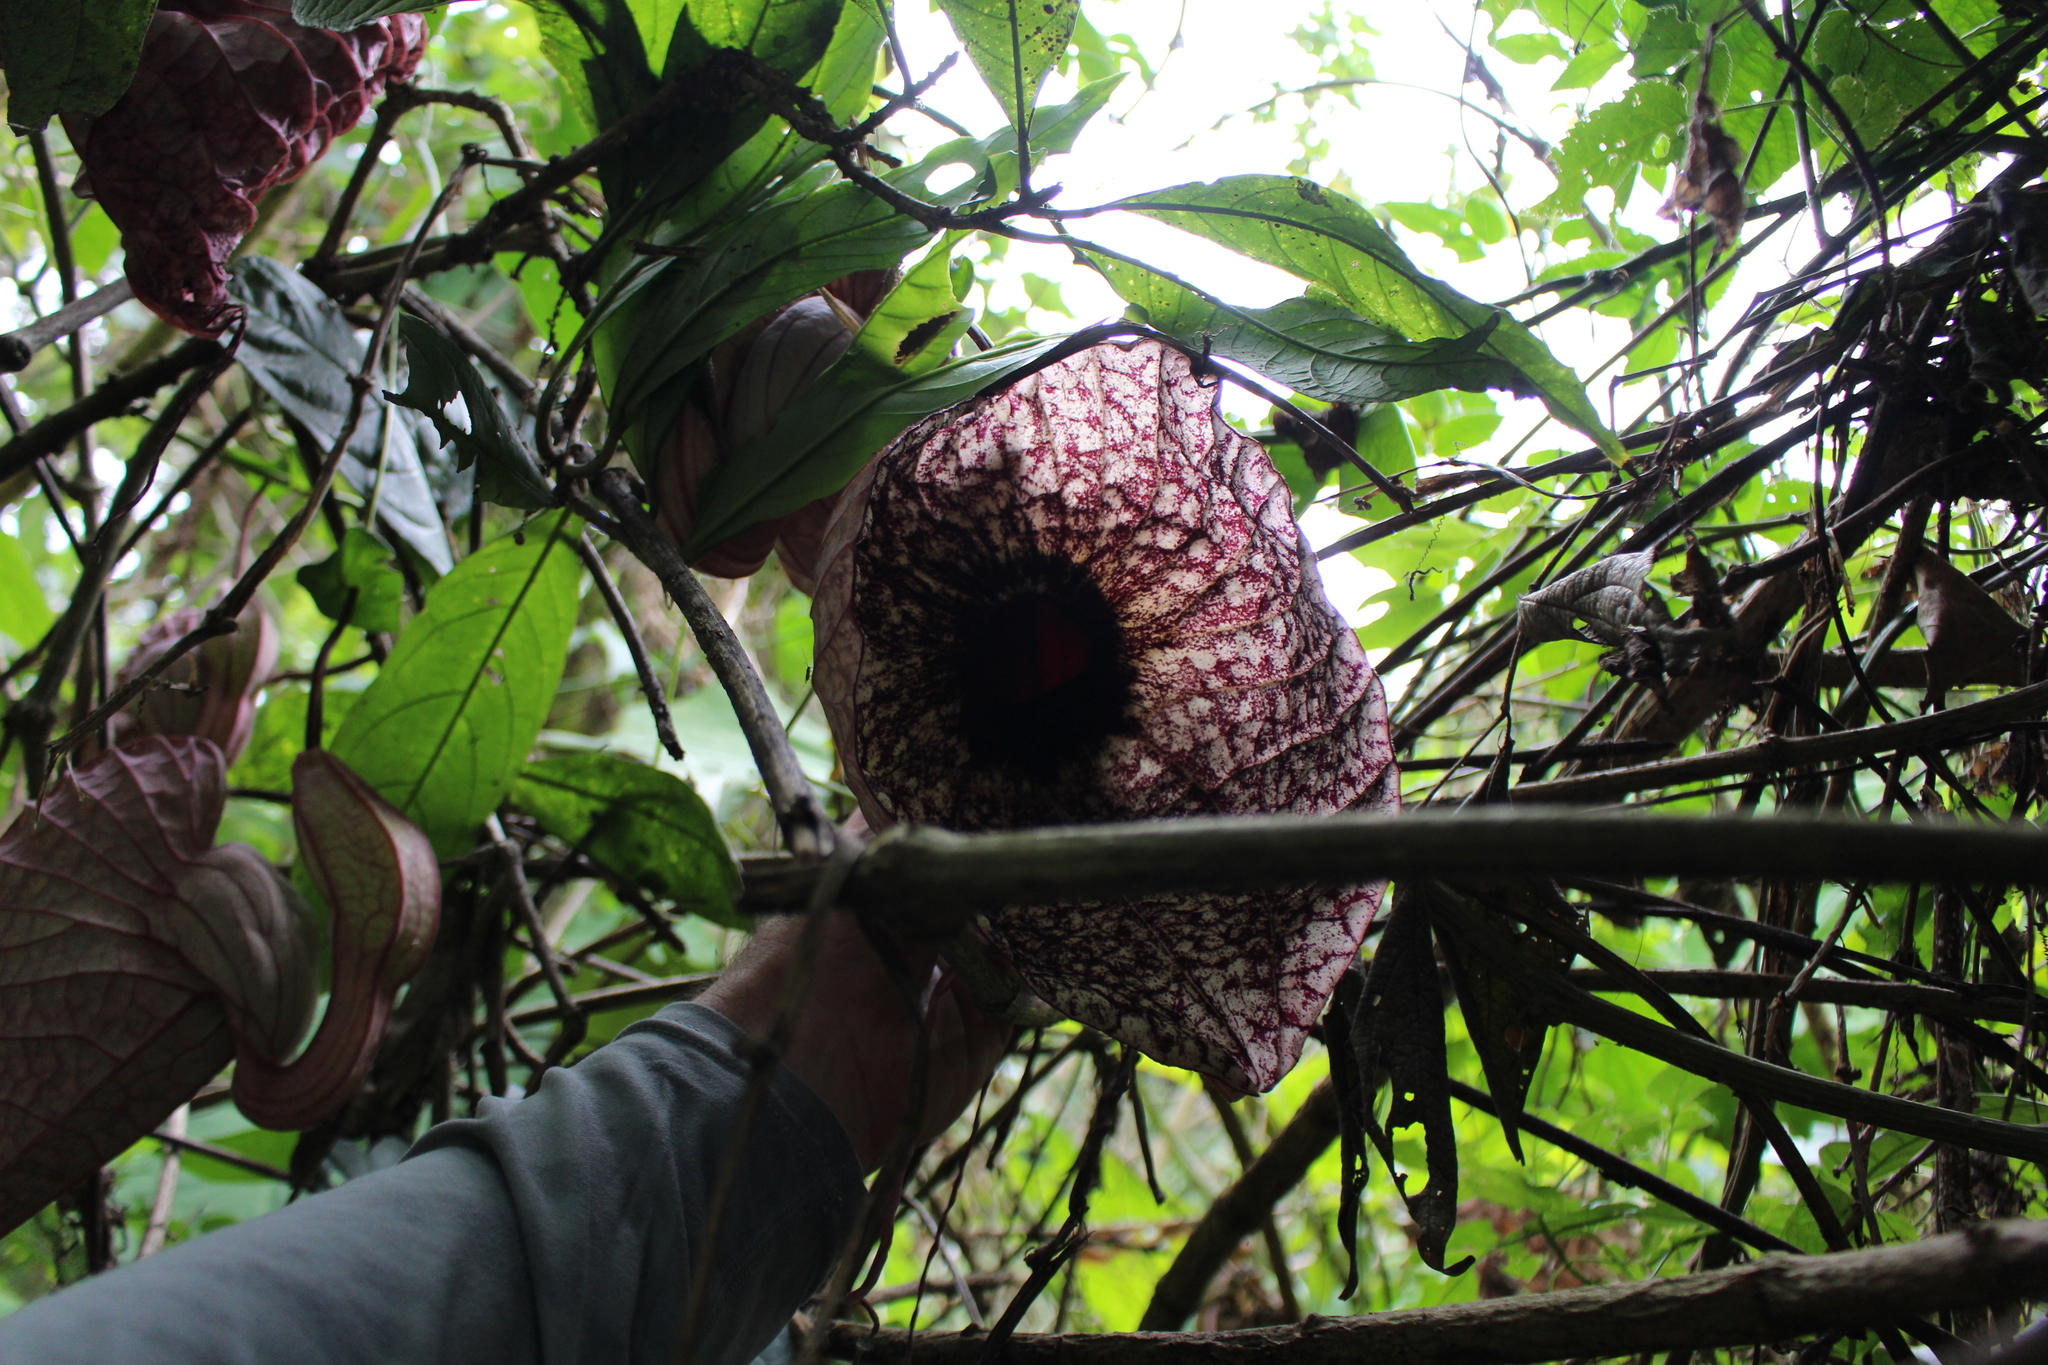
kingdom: Plantae
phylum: Tracheophyta
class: Magnoliopsida
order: Piperales
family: Aristolochiaceae
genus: Aristolochia
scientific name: Aristolochia grandiflora
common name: Pelicanflower
